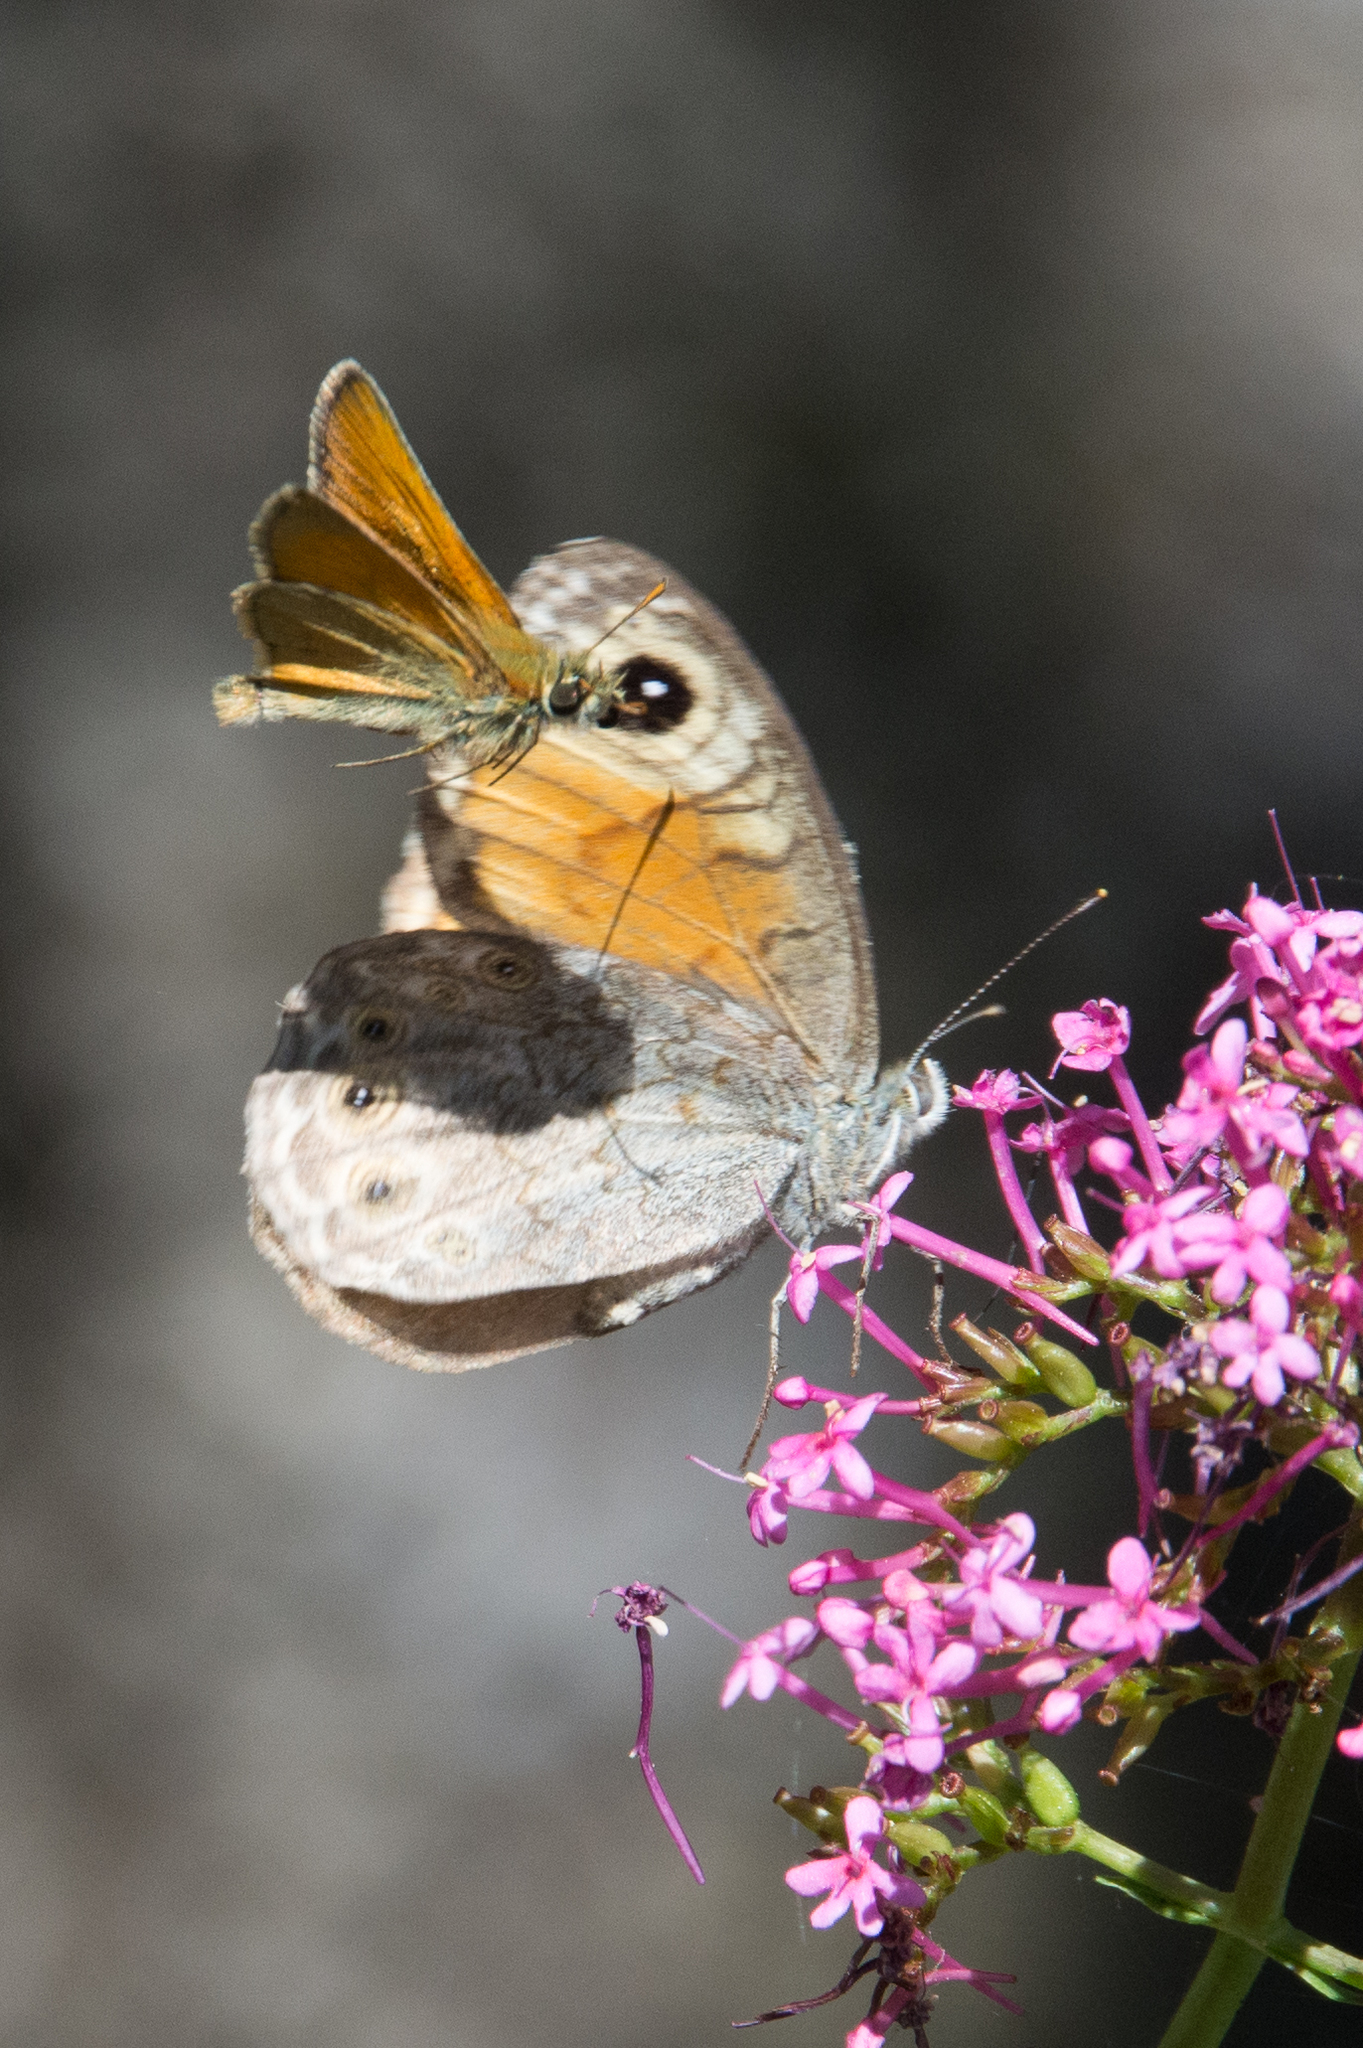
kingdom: Animalia
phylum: Arthropoda
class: Insecta
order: Lepidoptera
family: Nymphalidae
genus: Pararge
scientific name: Pararge Lasiommata maera
